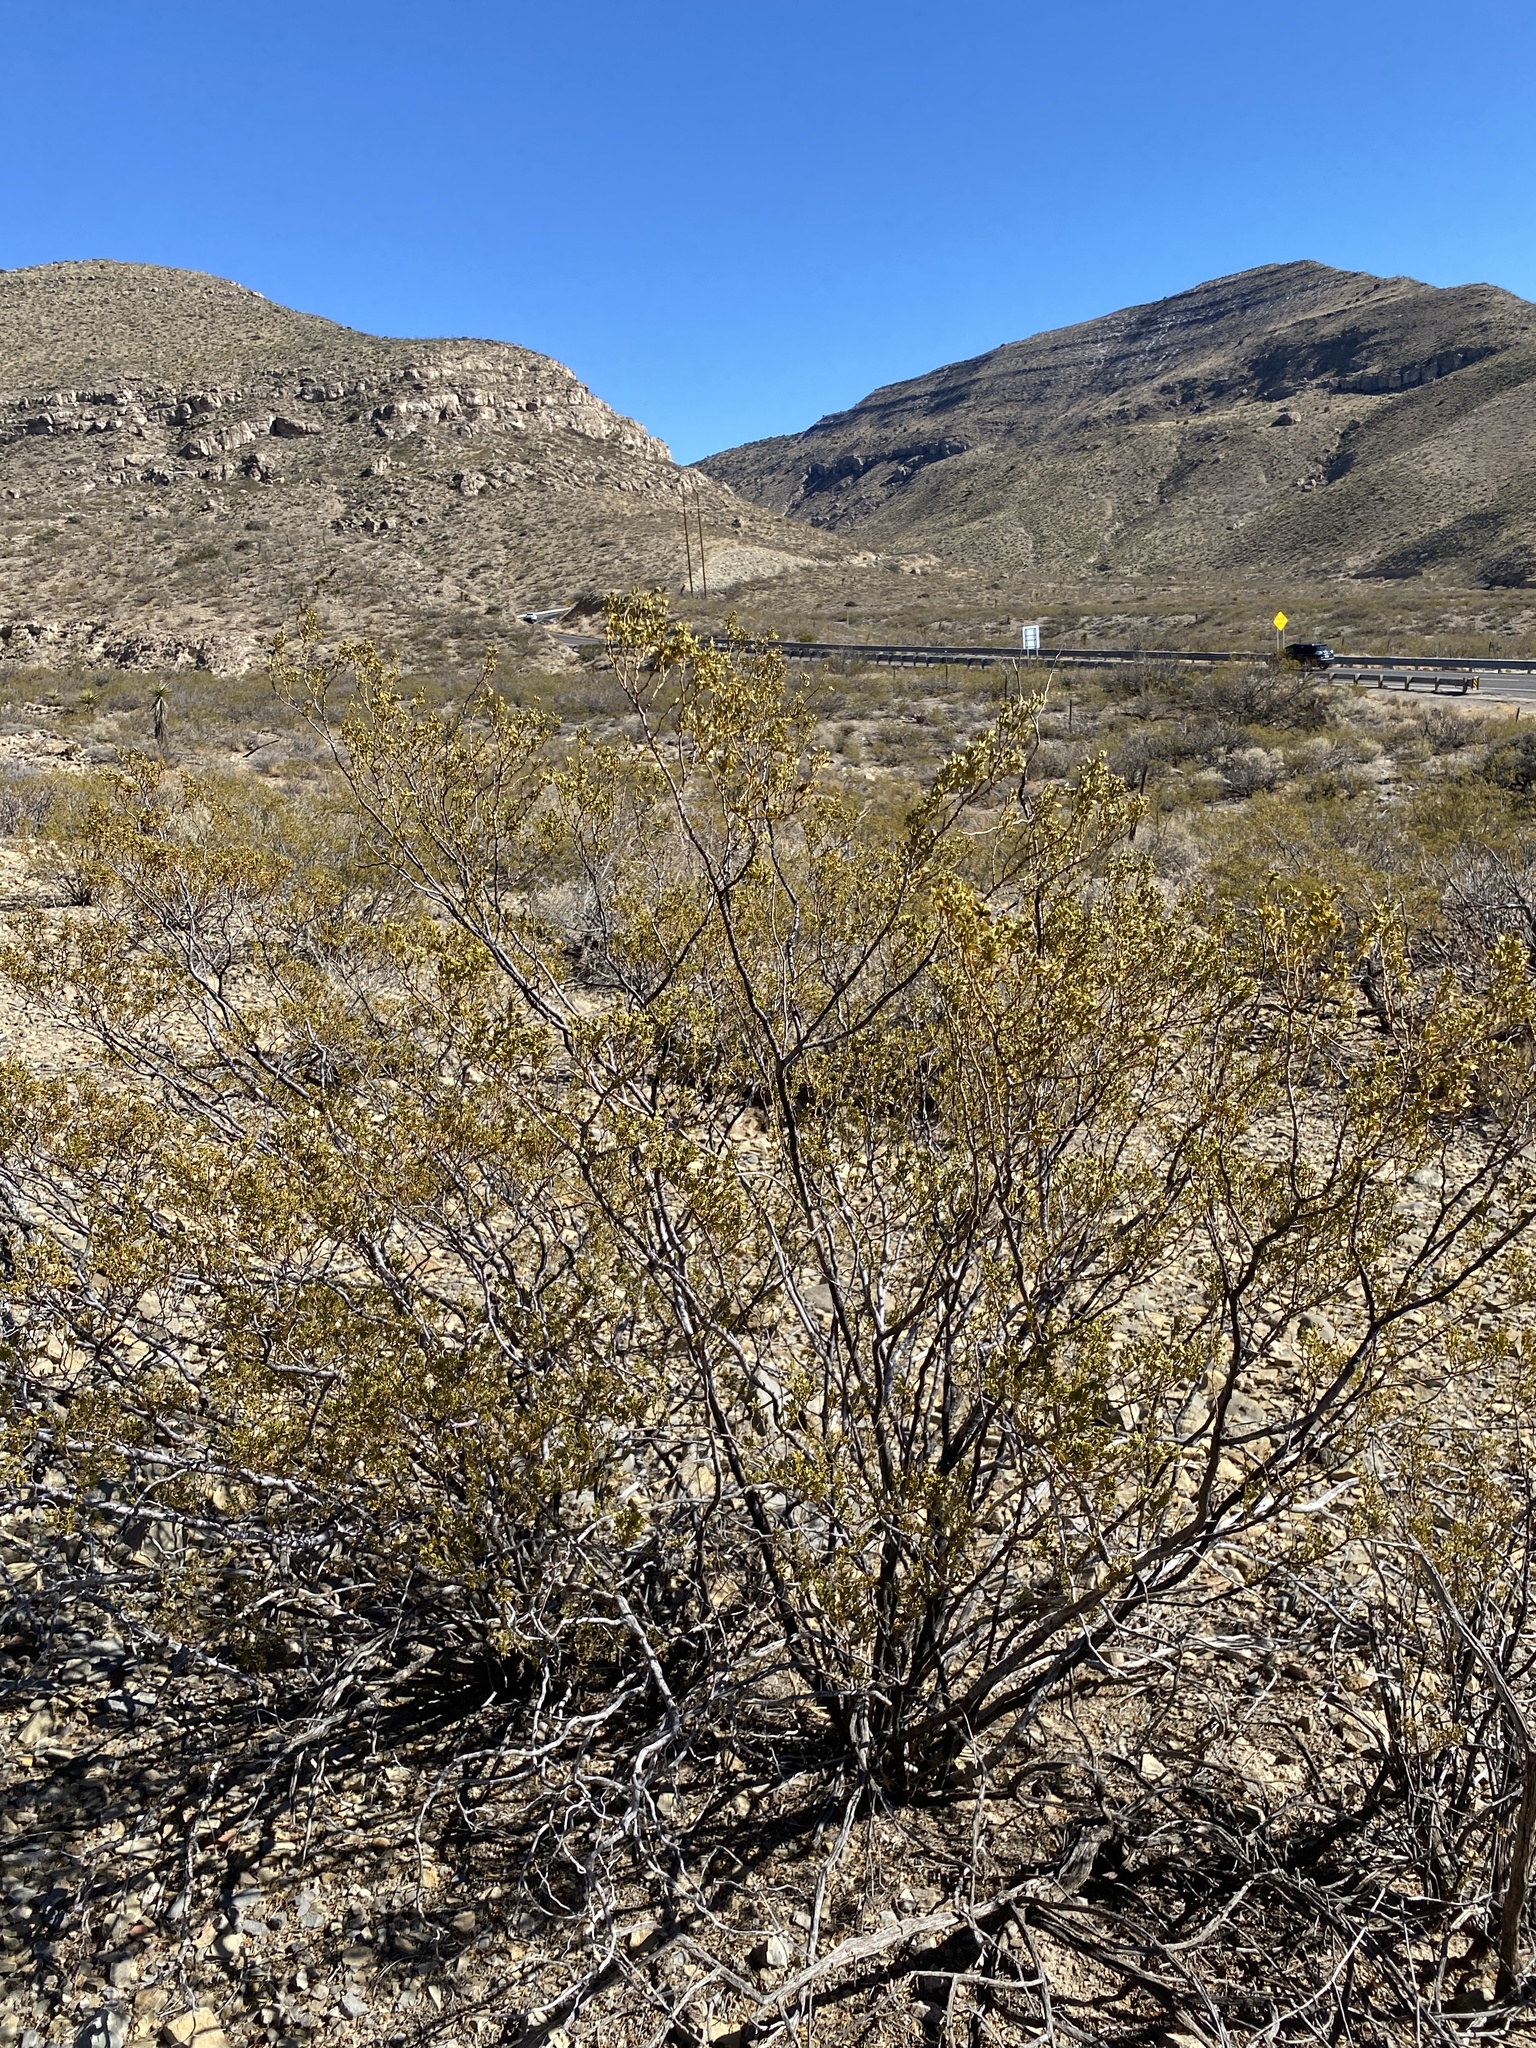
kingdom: Plantae
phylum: Tracheophyta
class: Magnoliopsida
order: Zygophyllales
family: Zygophyllaceae
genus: Larrea
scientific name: Larrea tridentata
